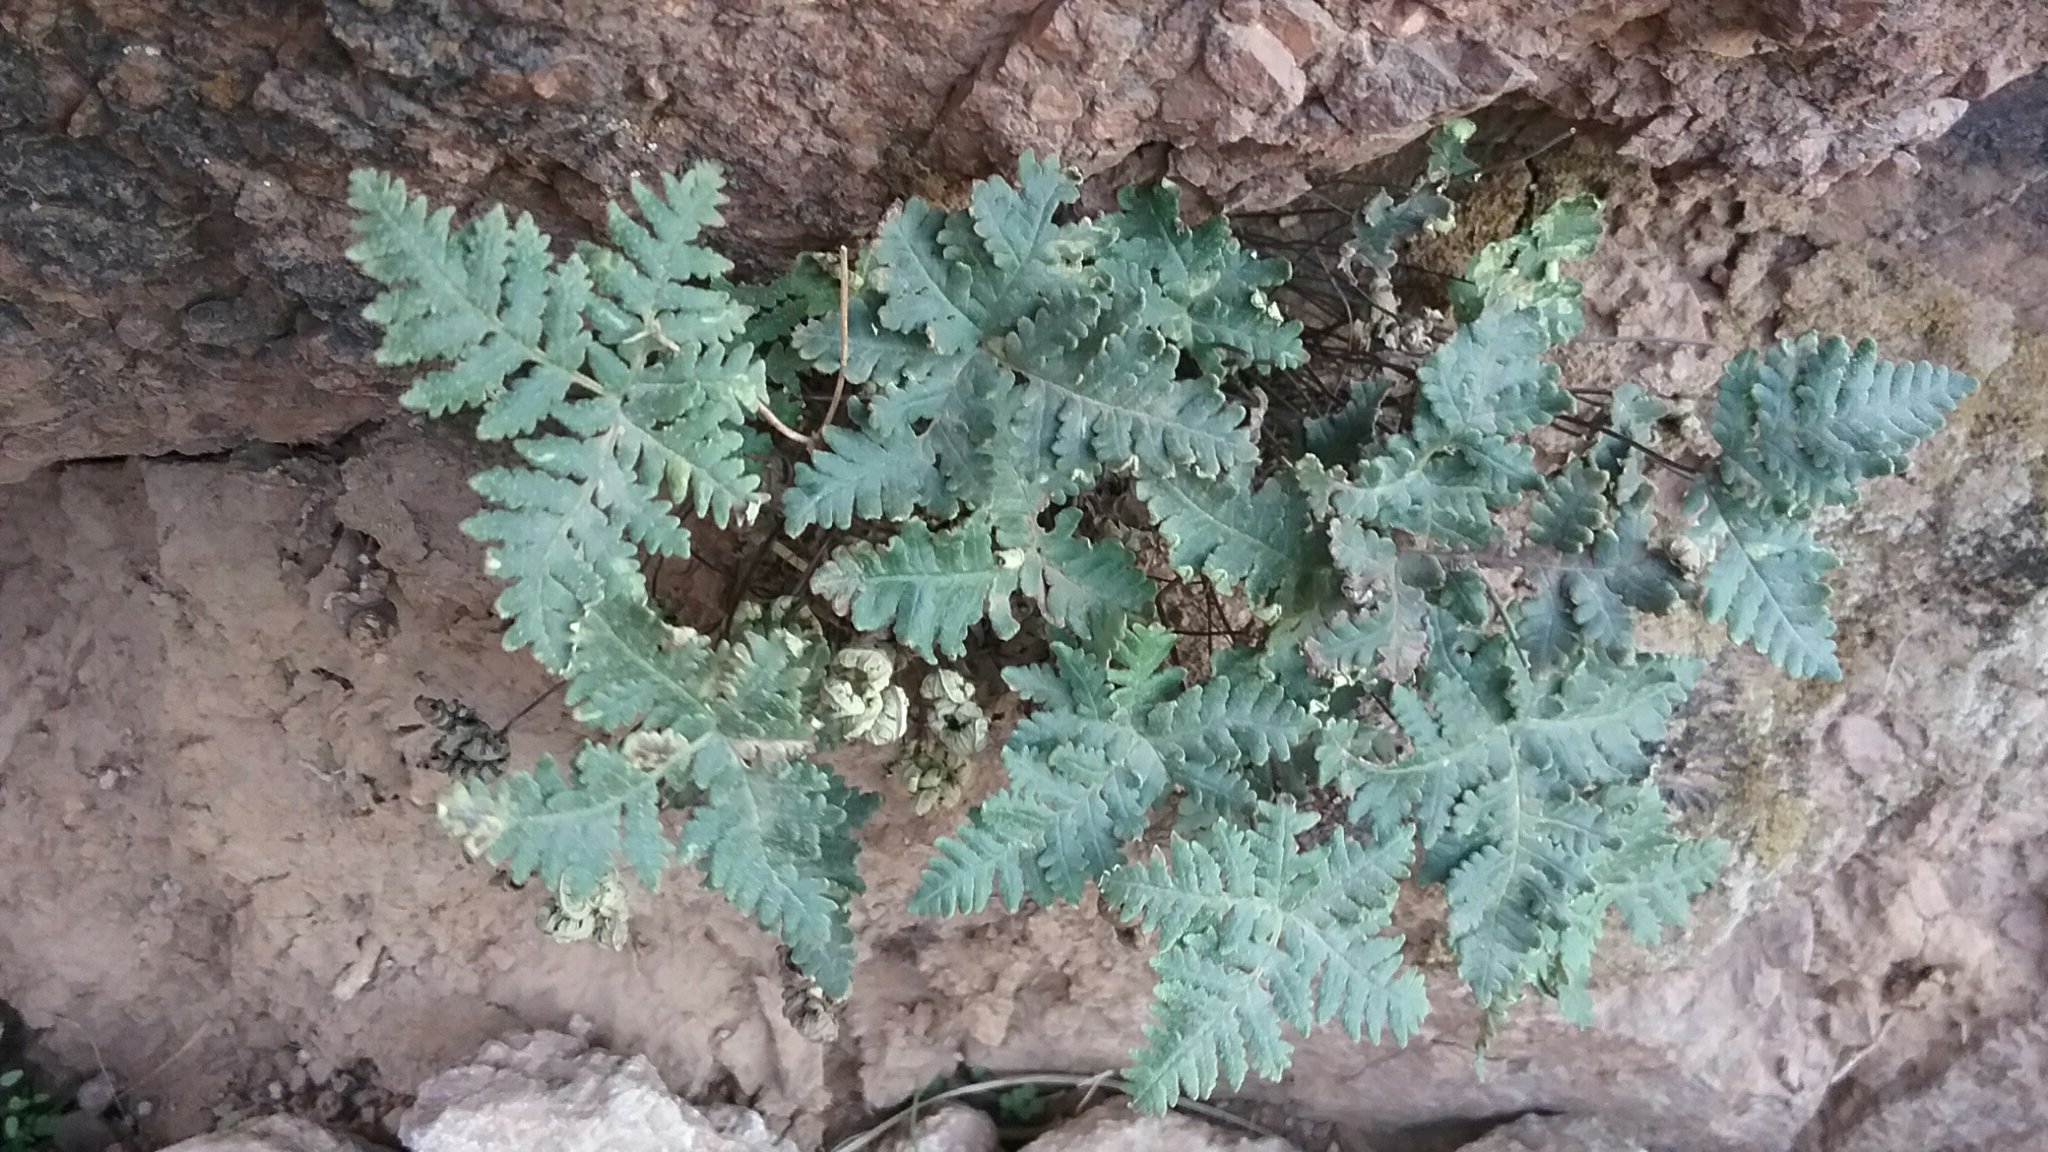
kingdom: Plantae
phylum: Tracheophyta
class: Polypodiopsida
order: Polypodiales
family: Pteridaceae
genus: Notholaena
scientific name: Notholaena standleyi
